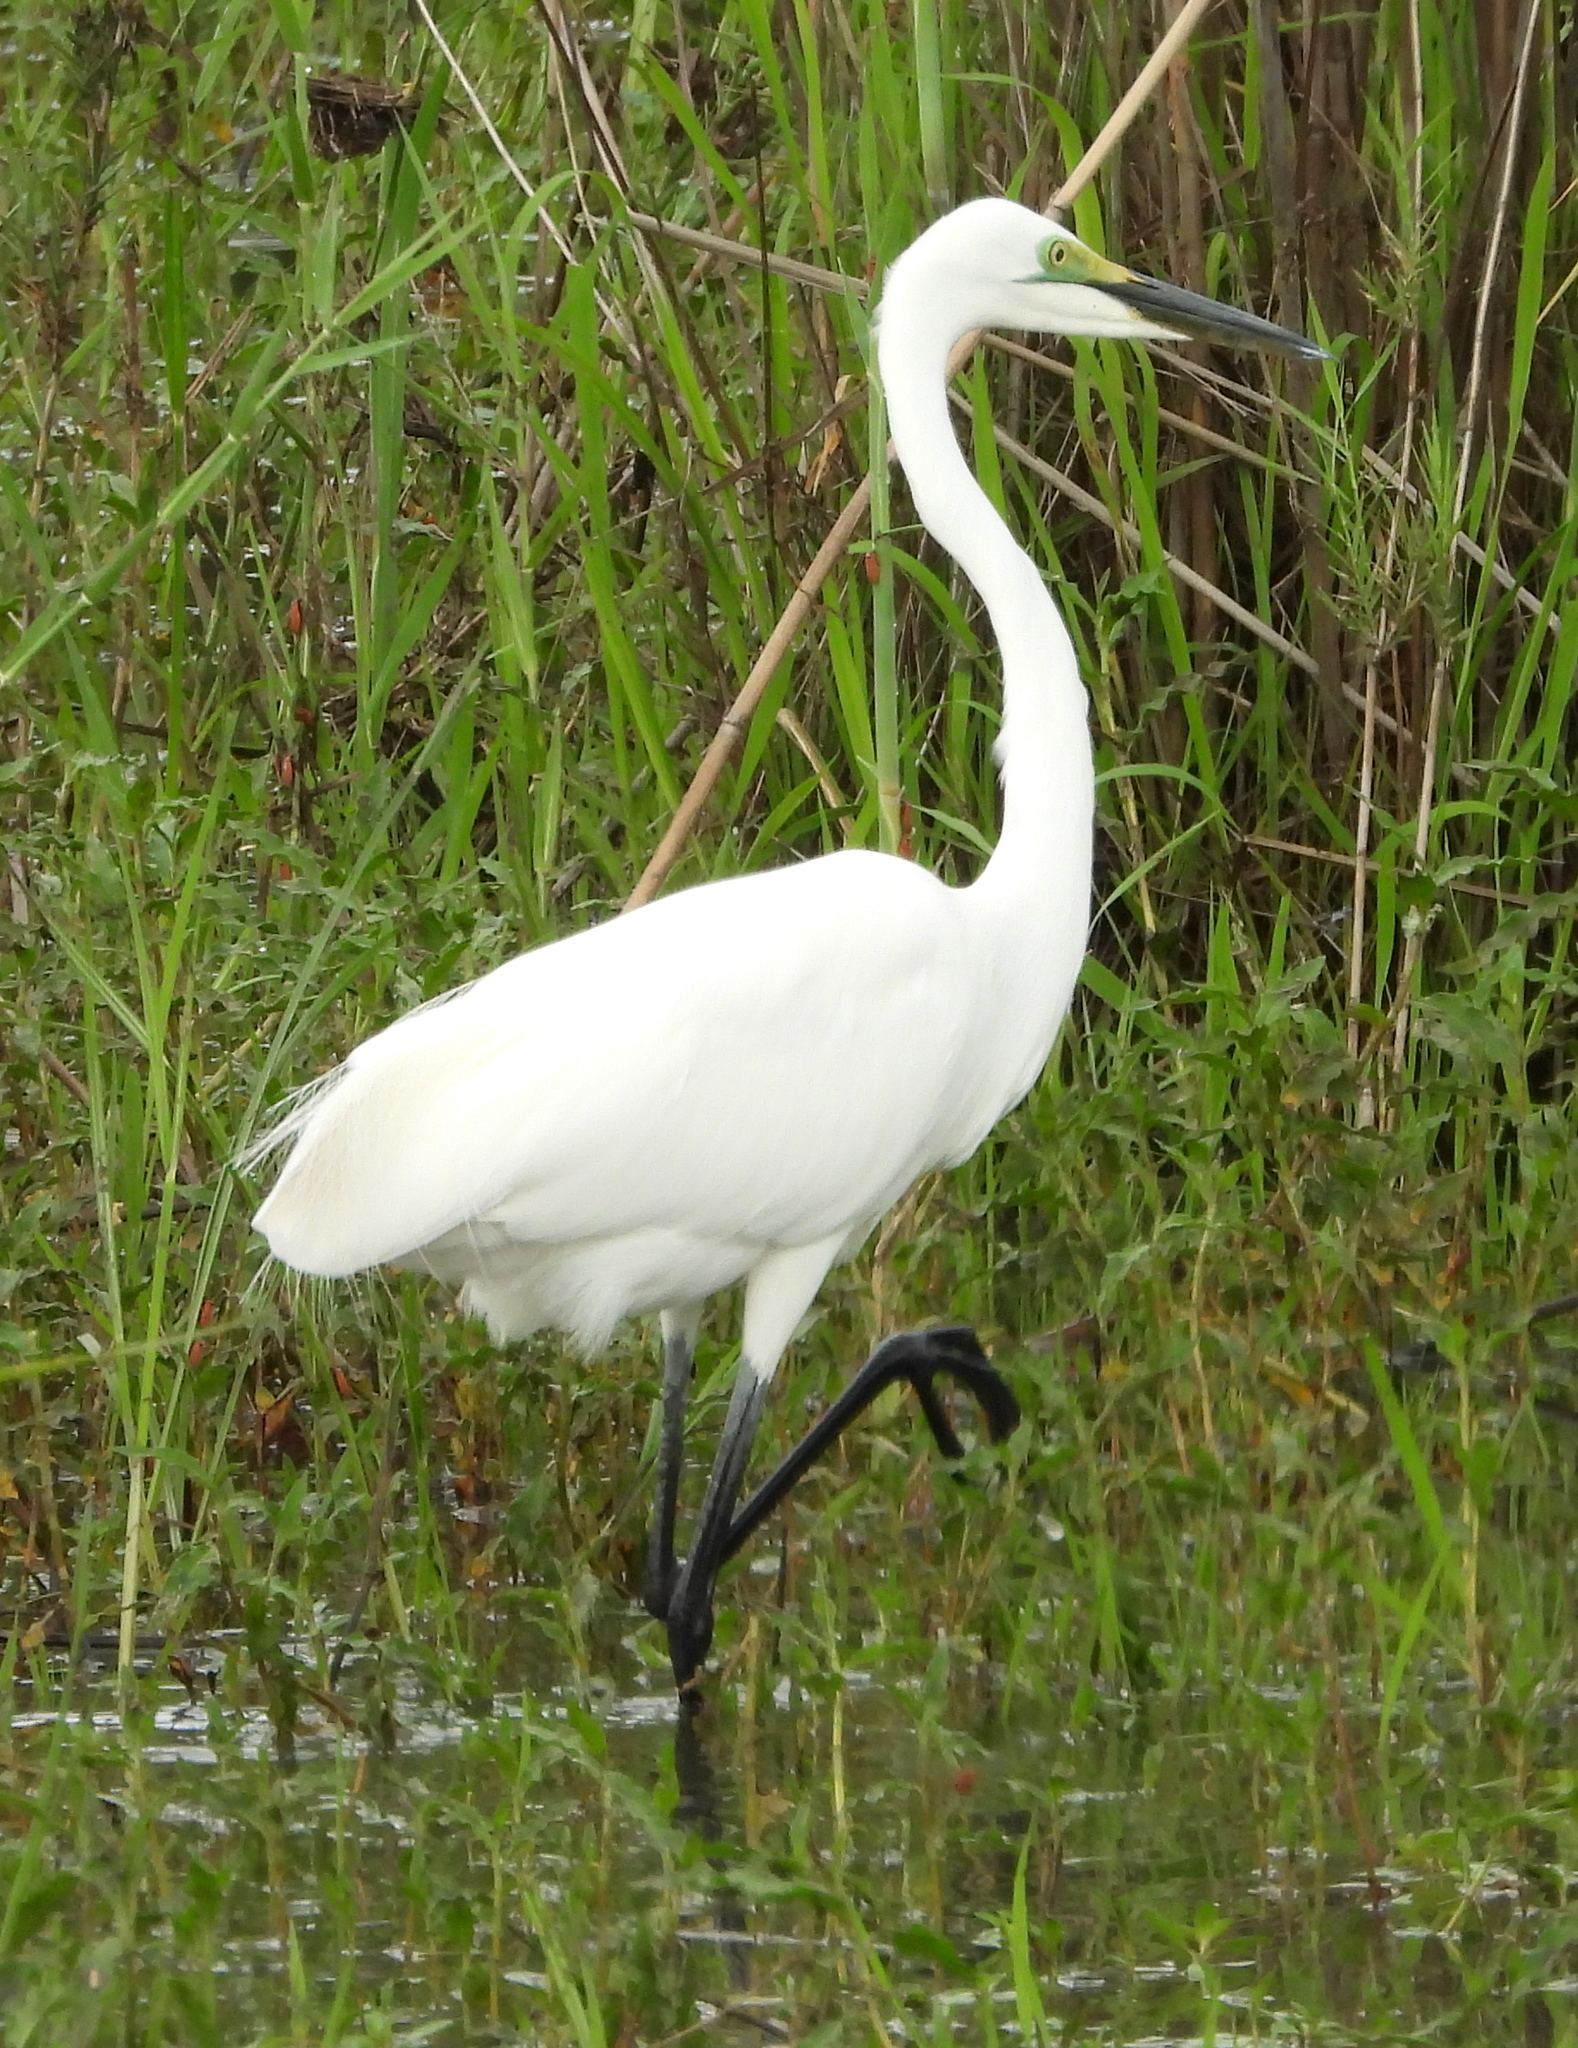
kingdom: Animalia
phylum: Chordata
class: Aves
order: Pelecaniformes
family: Ardeidae
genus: Ardea
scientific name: Ardea alba
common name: Great egret
